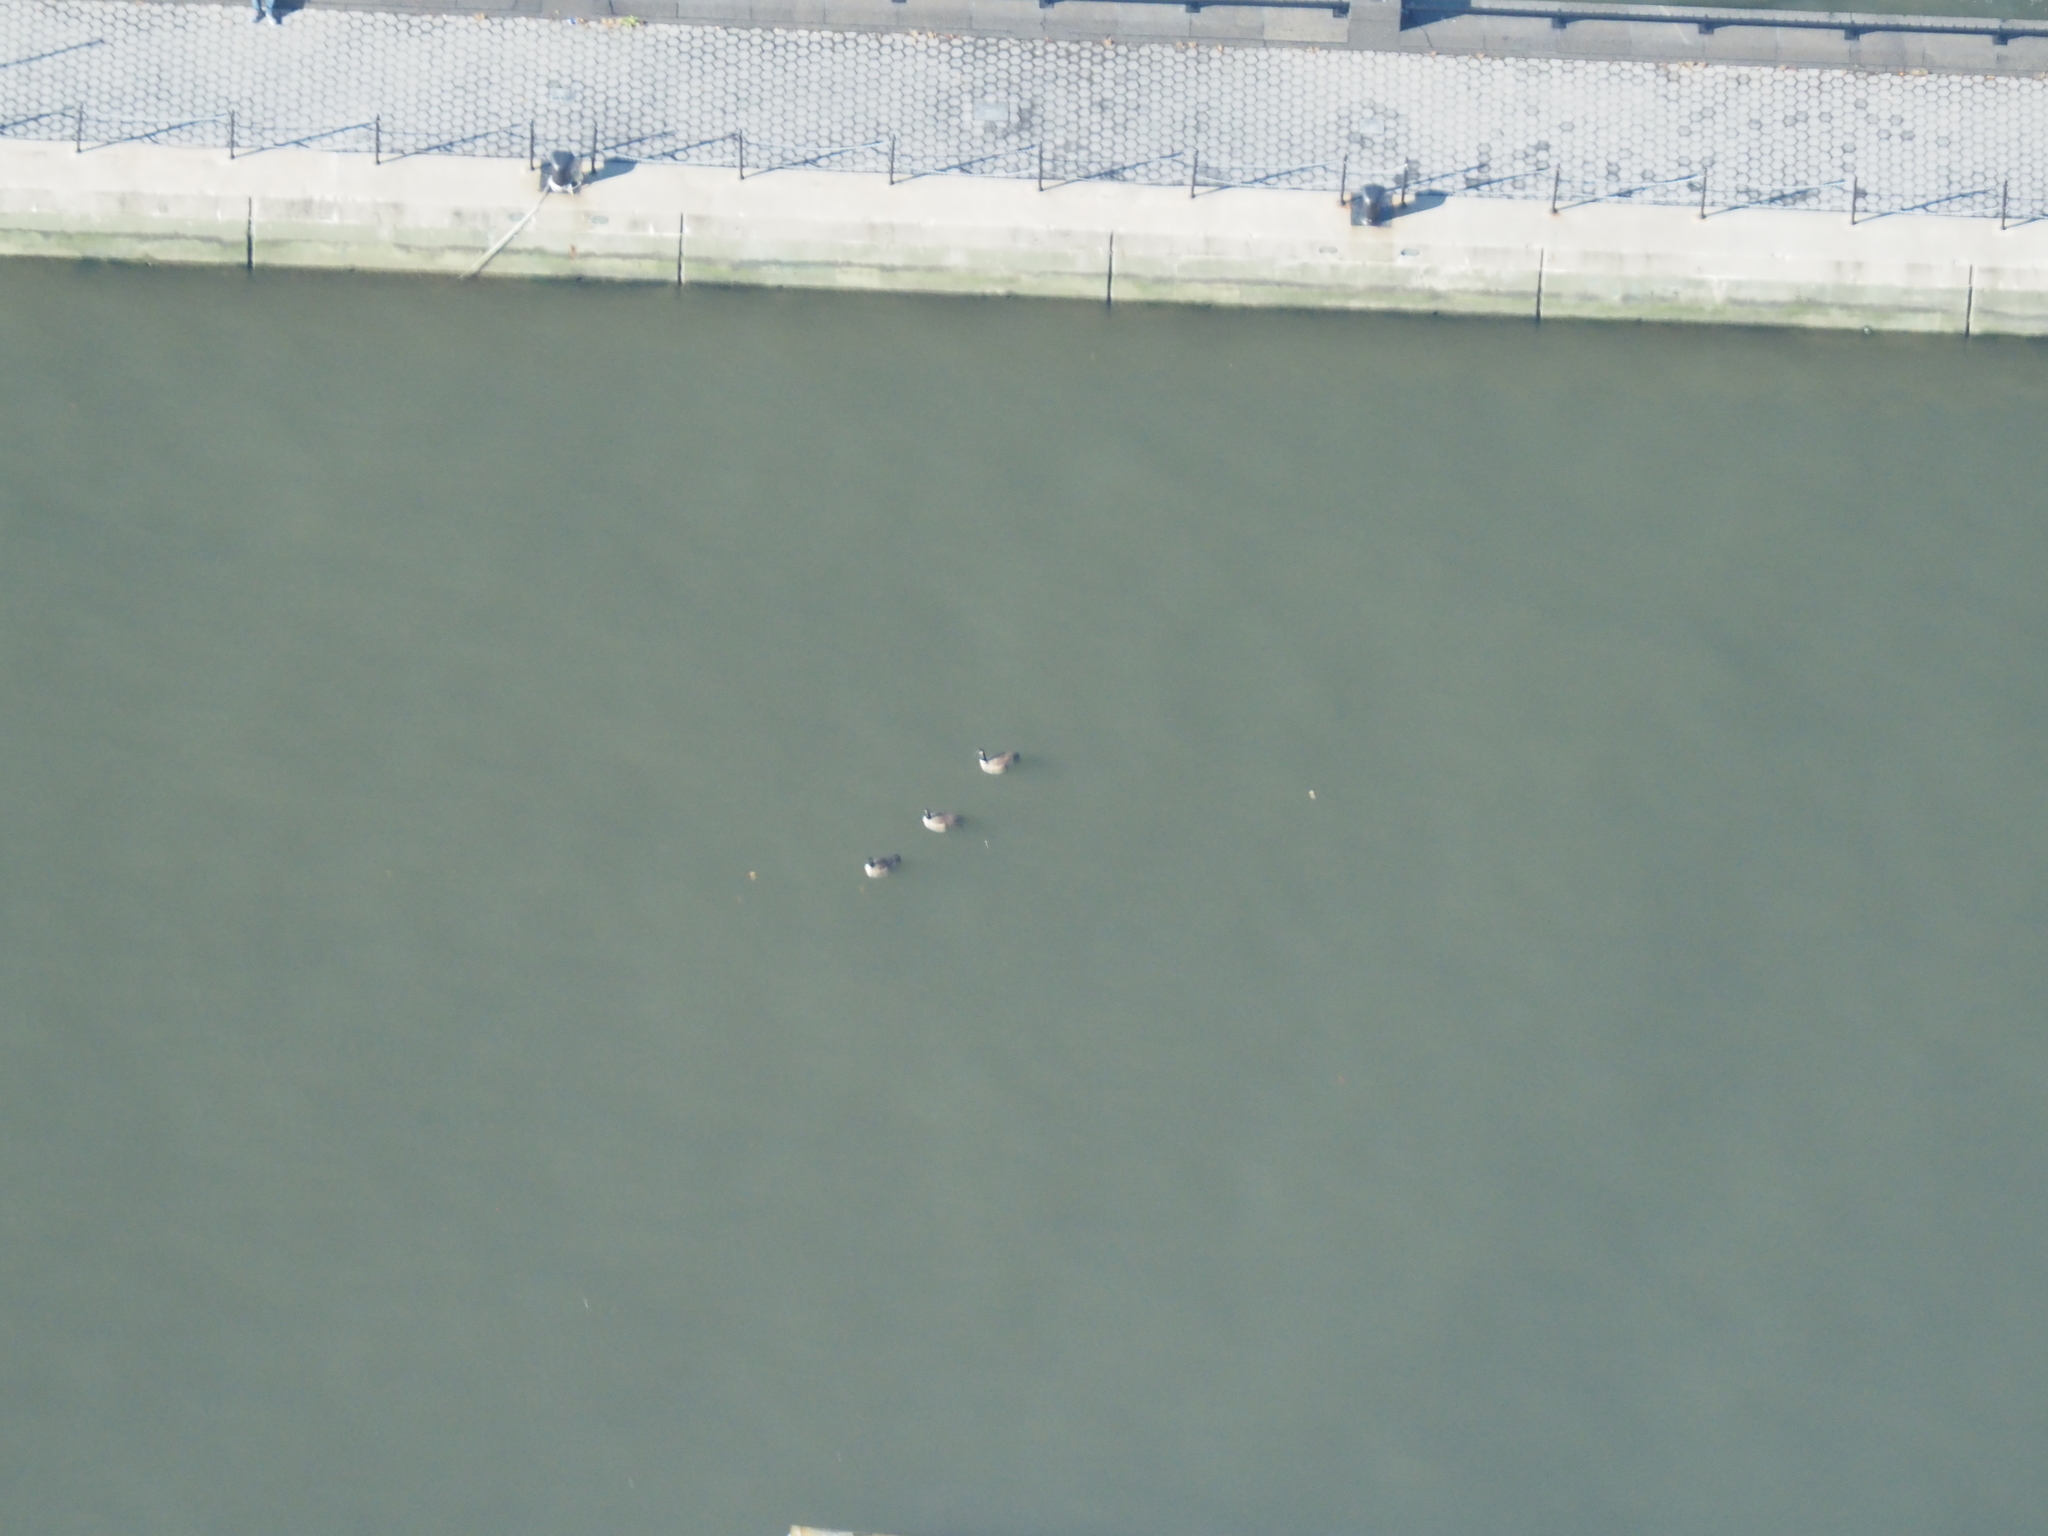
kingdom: Animalia
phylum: Chordata
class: Aves
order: Anseriformes
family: Anatidae
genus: Branta
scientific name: Branta canadensis
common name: Canada goose
